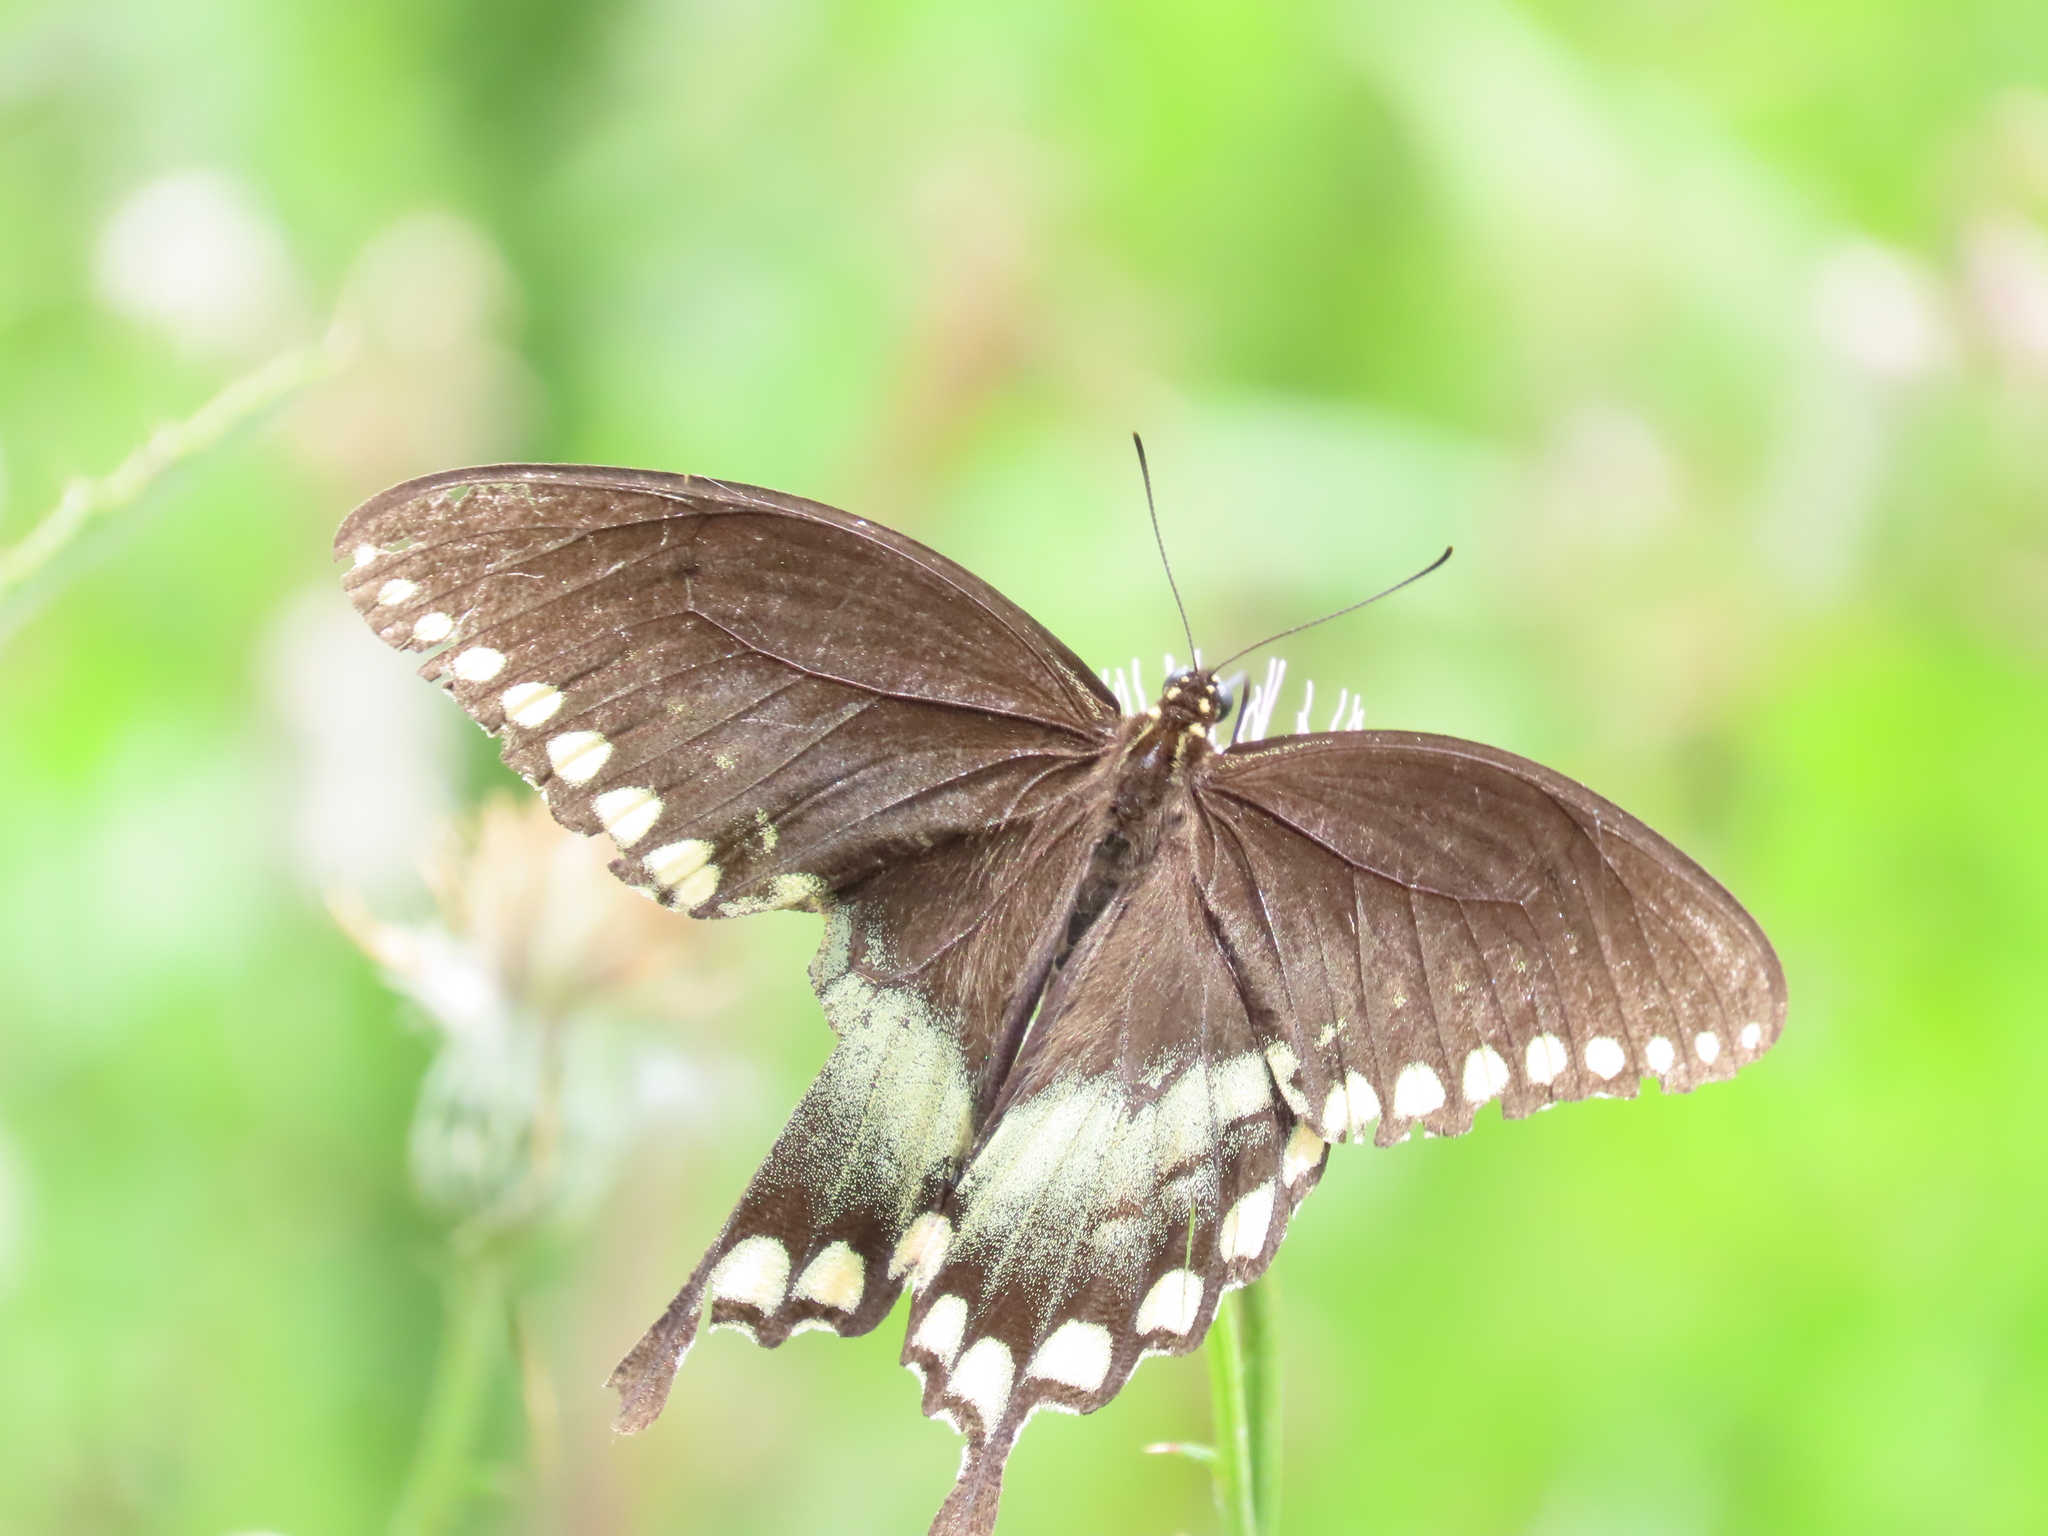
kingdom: Animalia
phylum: Arthropoda
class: Insecta
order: Lepidoptera
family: Papilionidae
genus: Papilio
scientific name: Papilio troilus
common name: Spicebush swallowtail
